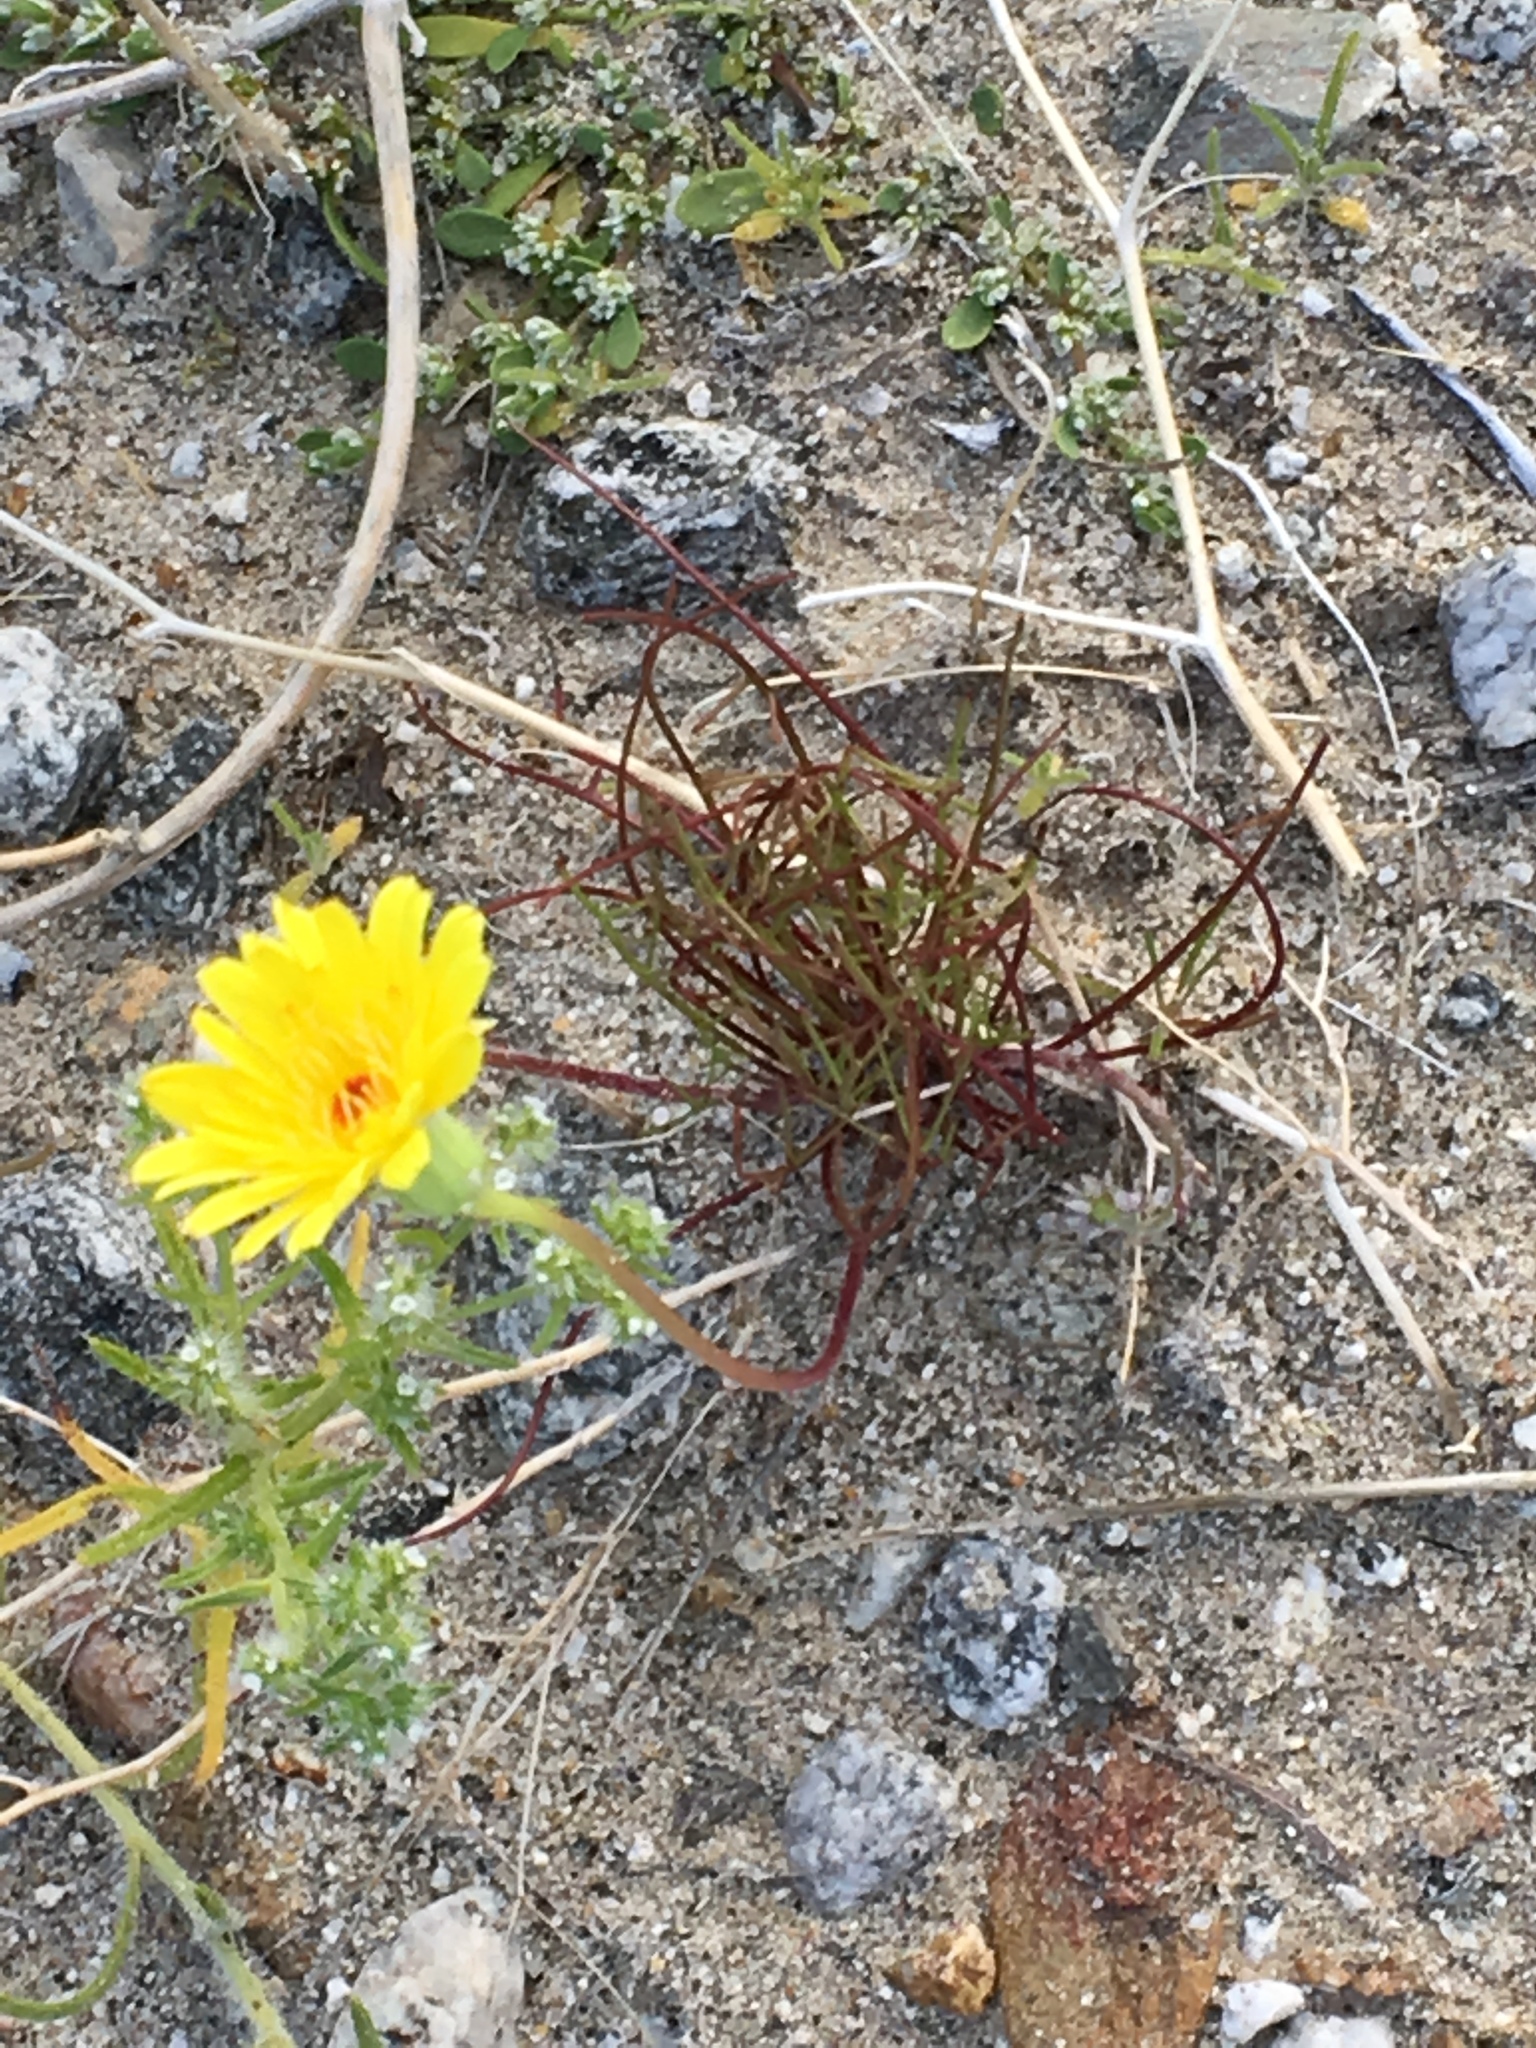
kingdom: Plantae
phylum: Tracheophyta
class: Magnoliopsida
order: Asterales
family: Asteraceae
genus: Malacothrix
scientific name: Malacothrix glabrata
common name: Smooth desert-dandelion
